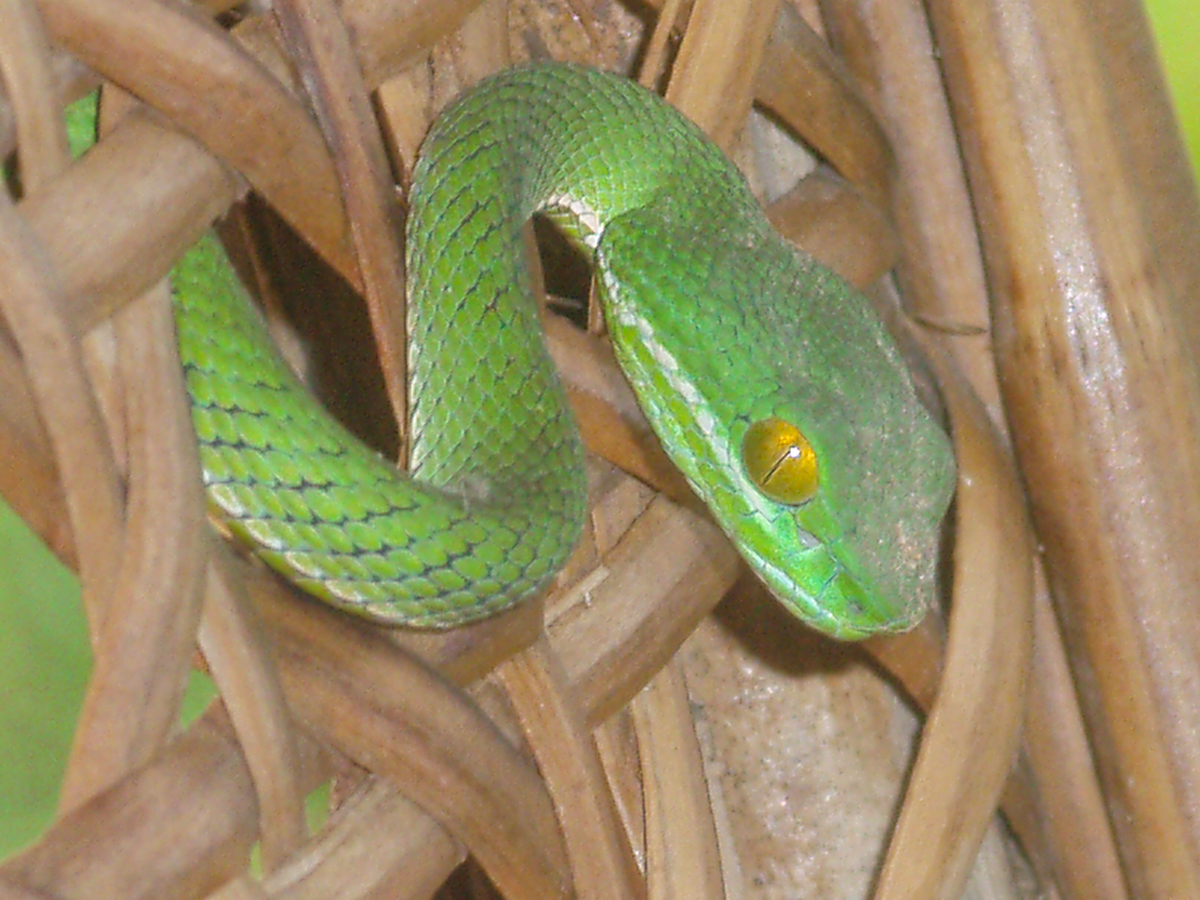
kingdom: Animalia
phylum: Chordata
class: Squamata
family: Viperidae
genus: Trimeresurus
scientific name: Trimeresurus cardamomensis
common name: Cardamom mountains green pitviper
